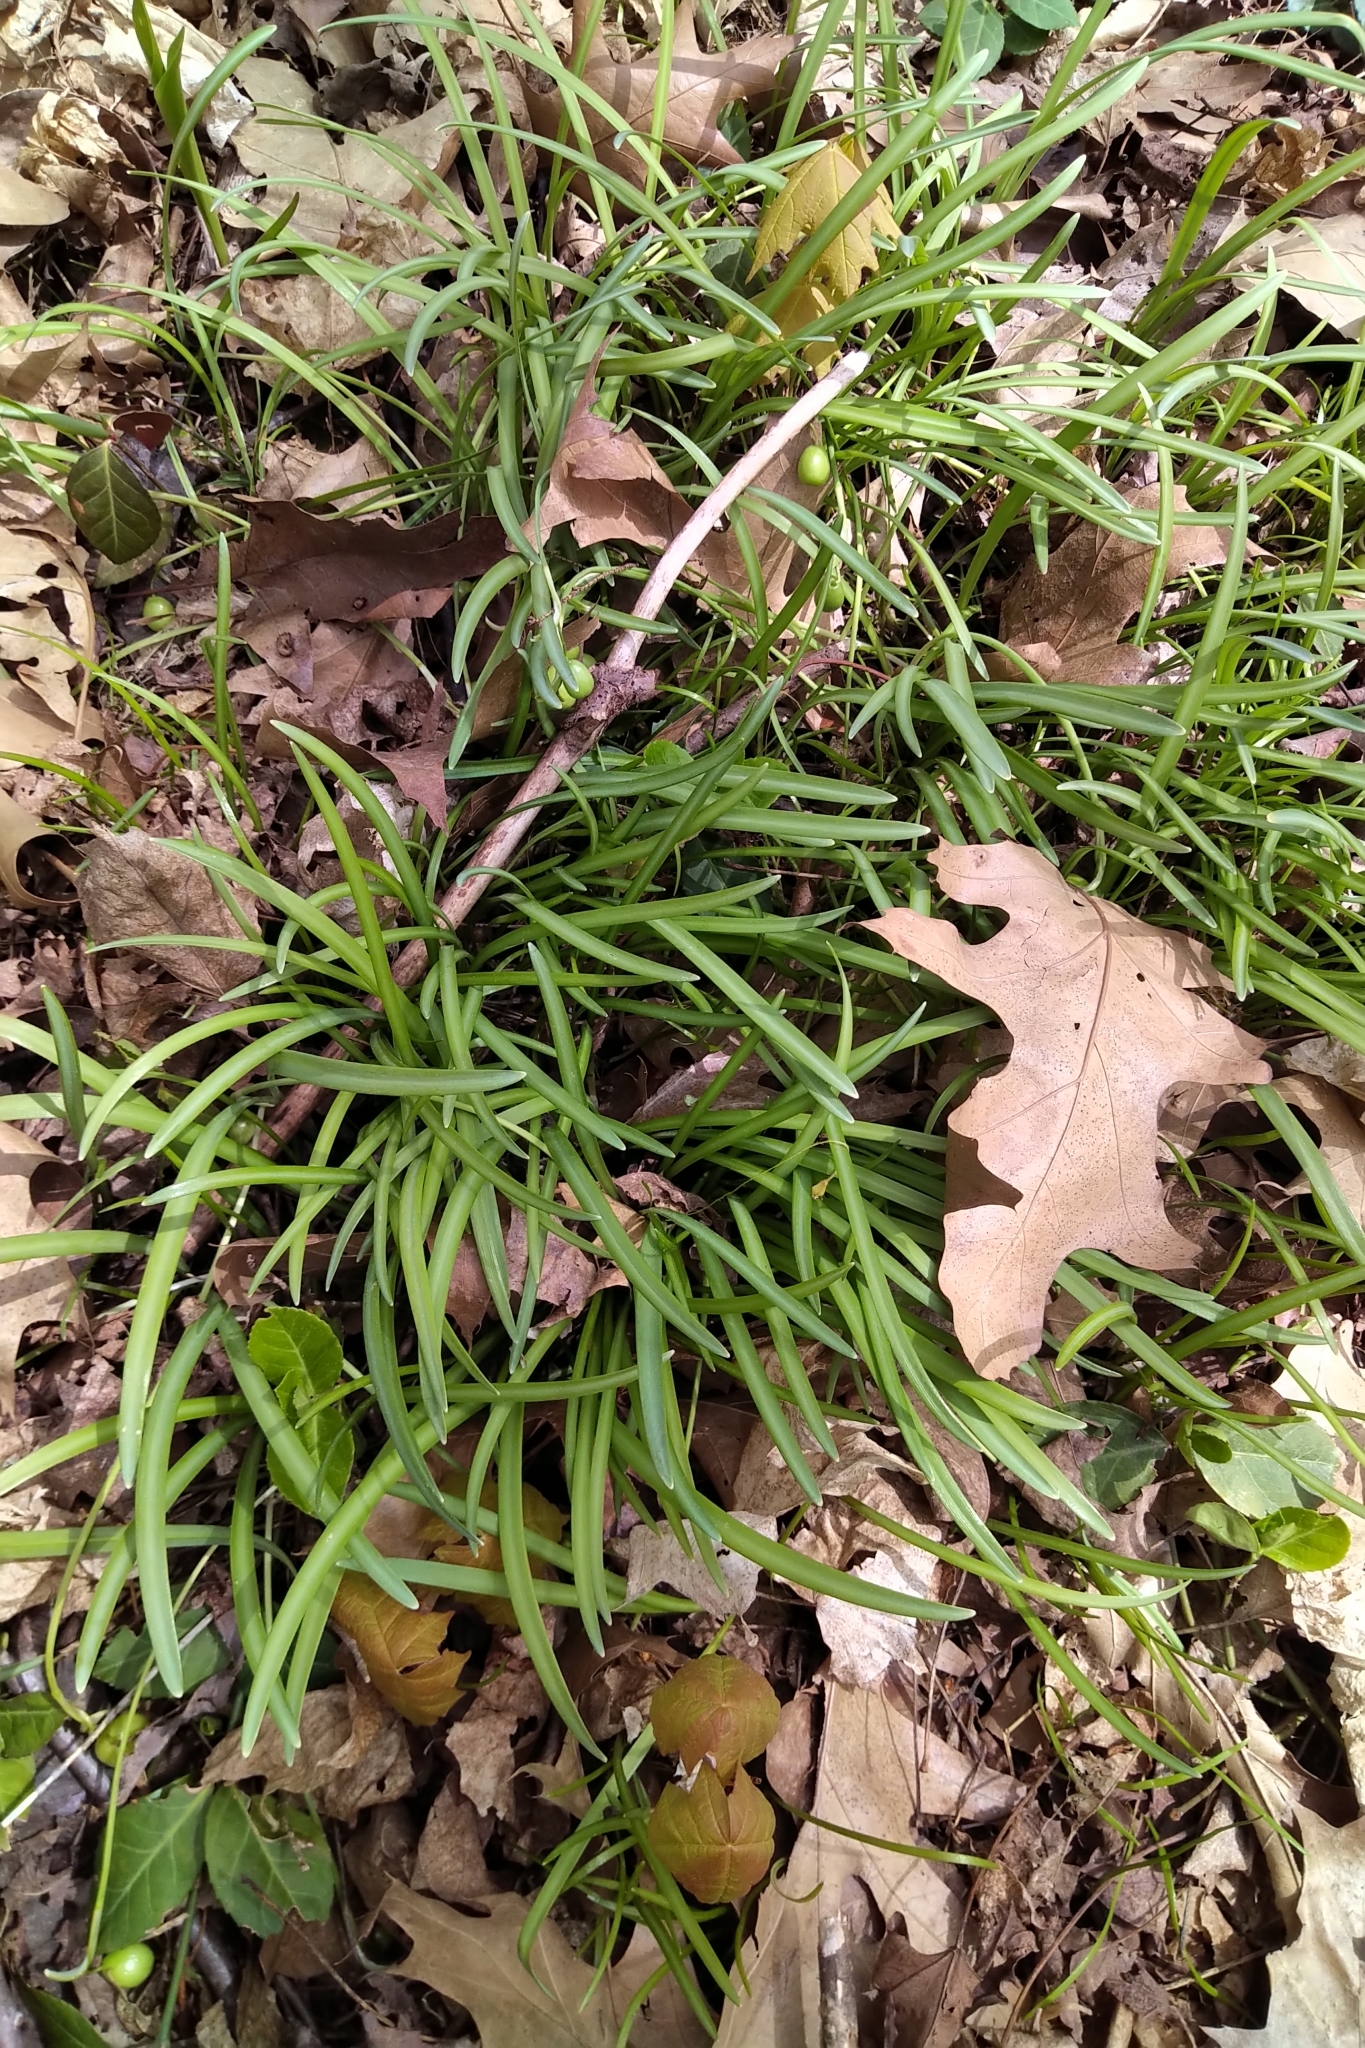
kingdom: Plantae
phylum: Tracheophyta
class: Liliopsida
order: Asparagales
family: Amaryllidaceae
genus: Galanthus
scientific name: Galanthus nivalis
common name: Snowdrop
